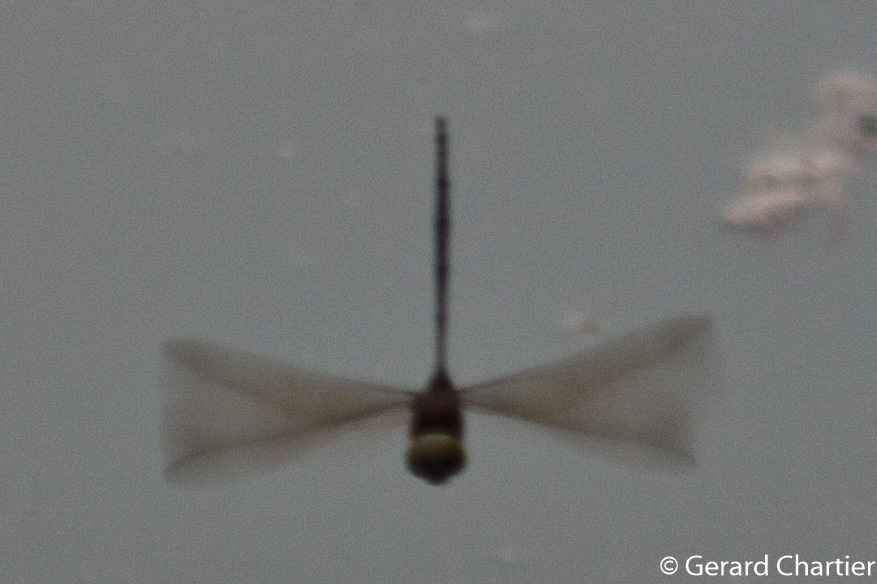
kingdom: Animalia
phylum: Arthropoda
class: Insecta
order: Odonata
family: Libellulidae
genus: Zyxomma
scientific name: Zyxomma petiolatum
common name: Dingy dusk-darter
